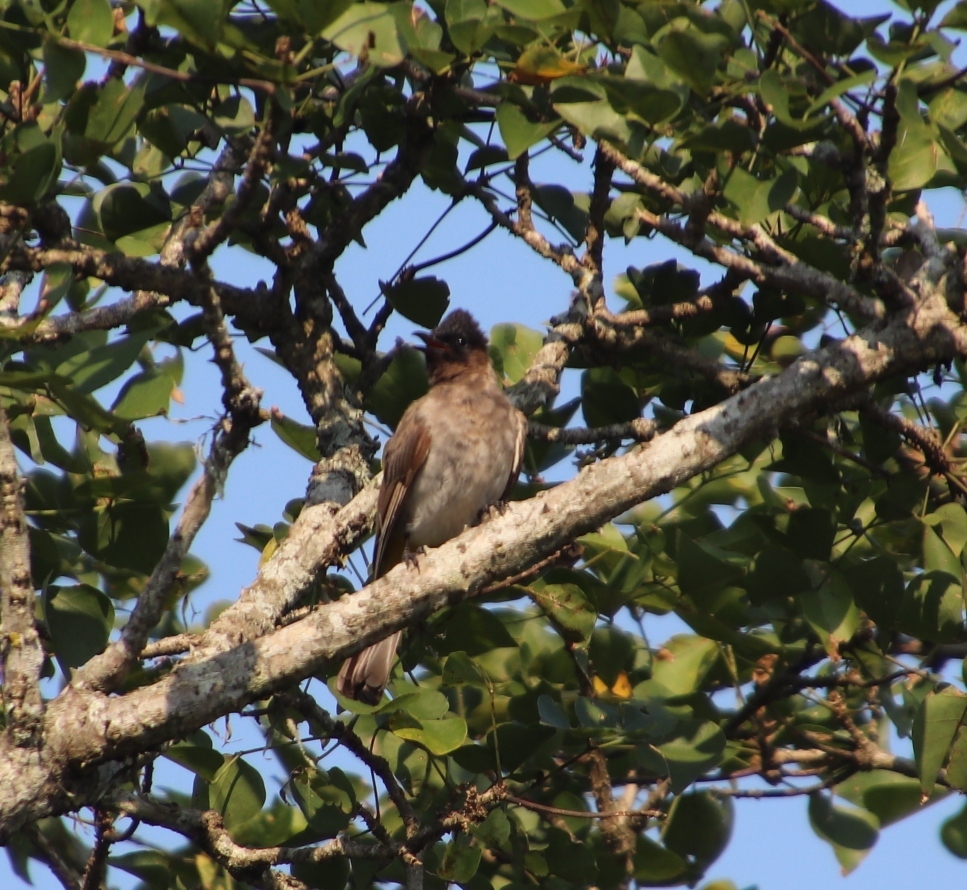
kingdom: Animalia
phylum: Chordata
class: Aves
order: Passeriformes
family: Pycnonotidae
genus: Pycnonotus
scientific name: Pycnonotus barbatus
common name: Common bulbul
